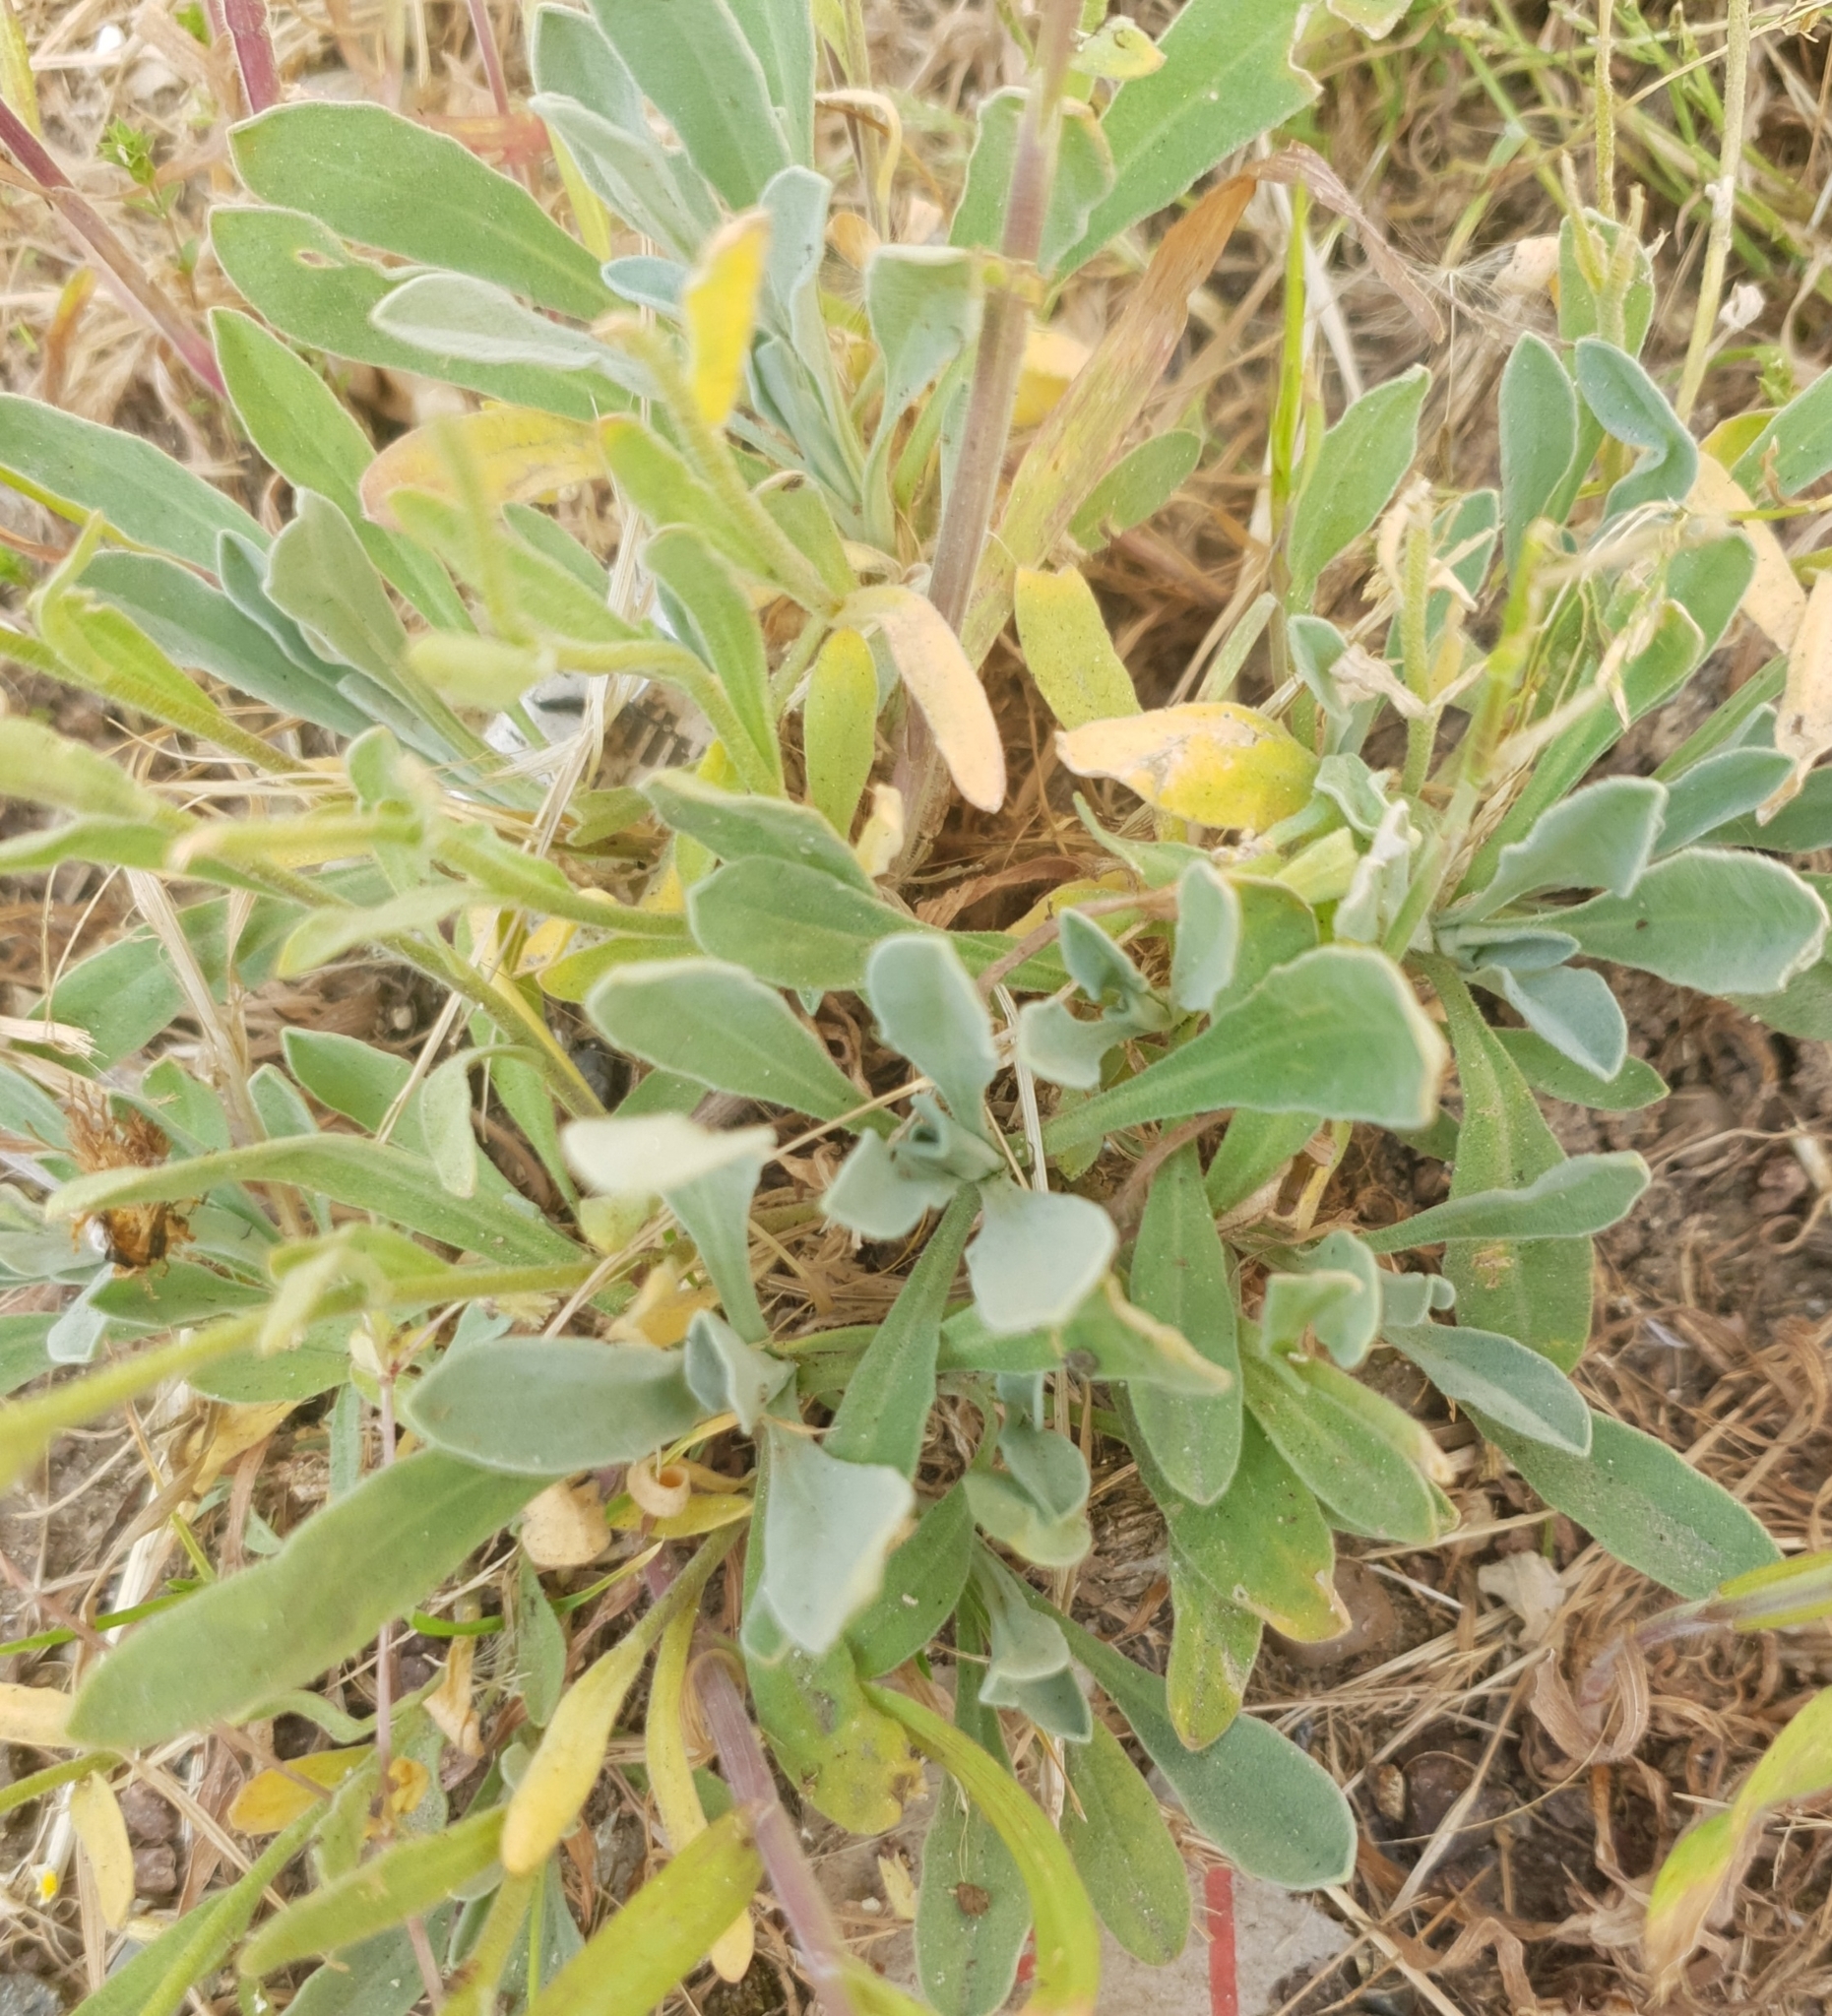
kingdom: Plantae
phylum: Tracheophyta
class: Magnoliopsida
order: Brassicales
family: Brassicaceae
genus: Aurinia
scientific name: Aurinia saxatilis
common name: Golden-tuft alyssum
